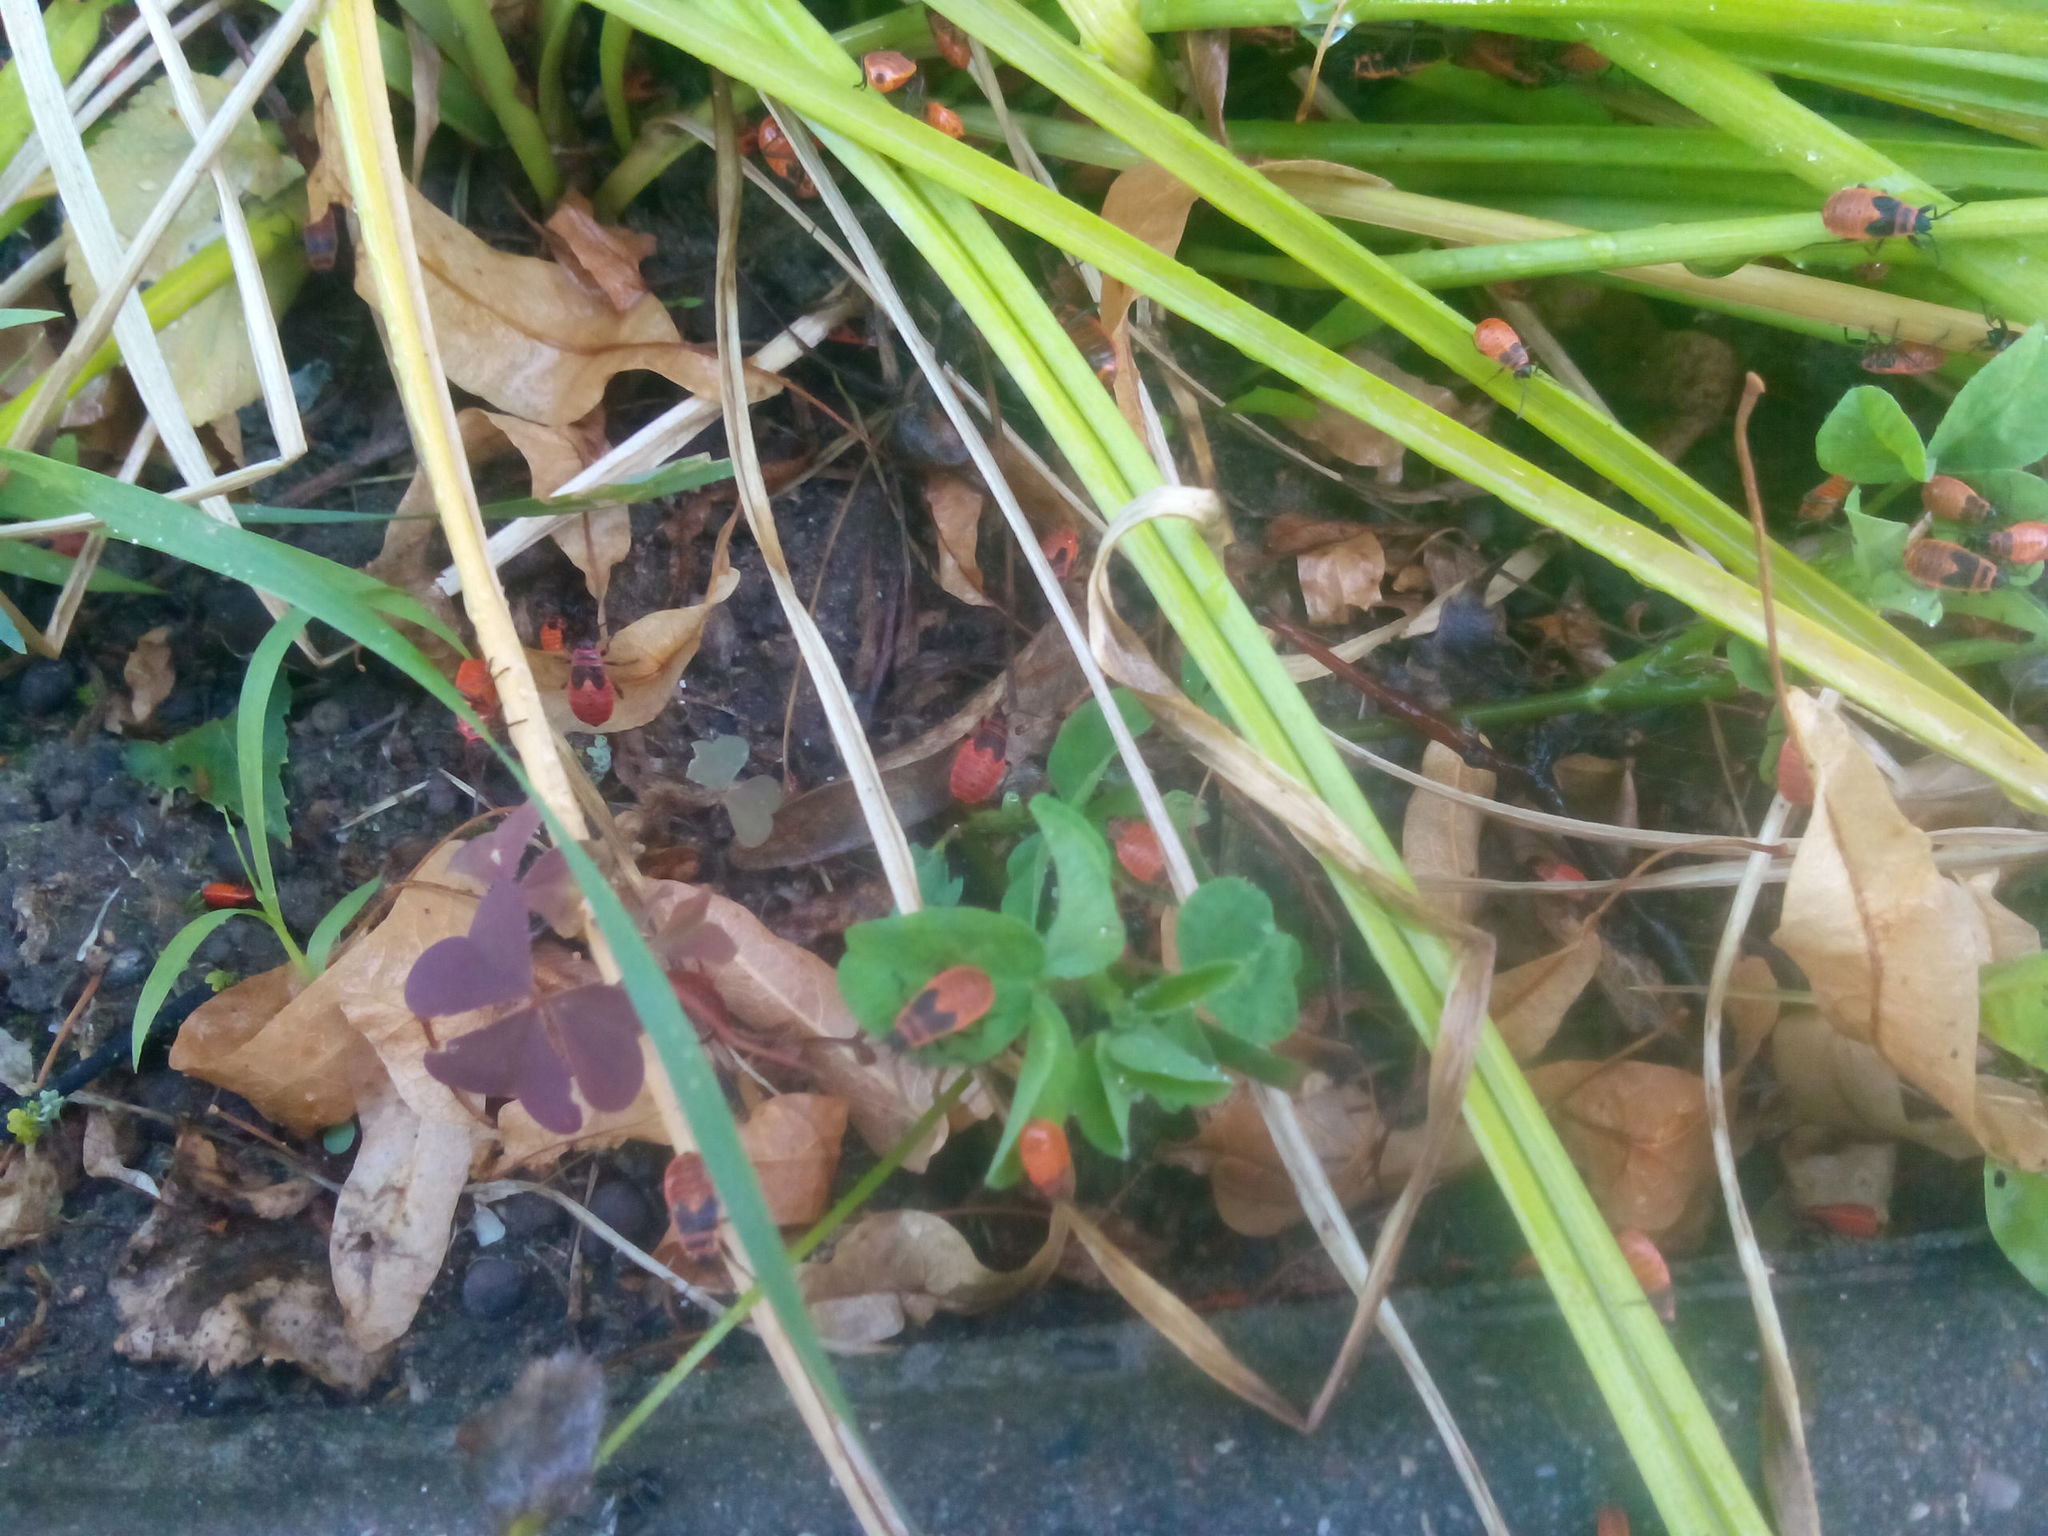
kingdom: Animalia
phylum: Arthropoda
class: Insecta
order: Hemiptera
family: Pyrrhocoridae
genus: Pyrrhocoris
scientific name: Pyrrhocoris apterus
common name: Firebug
